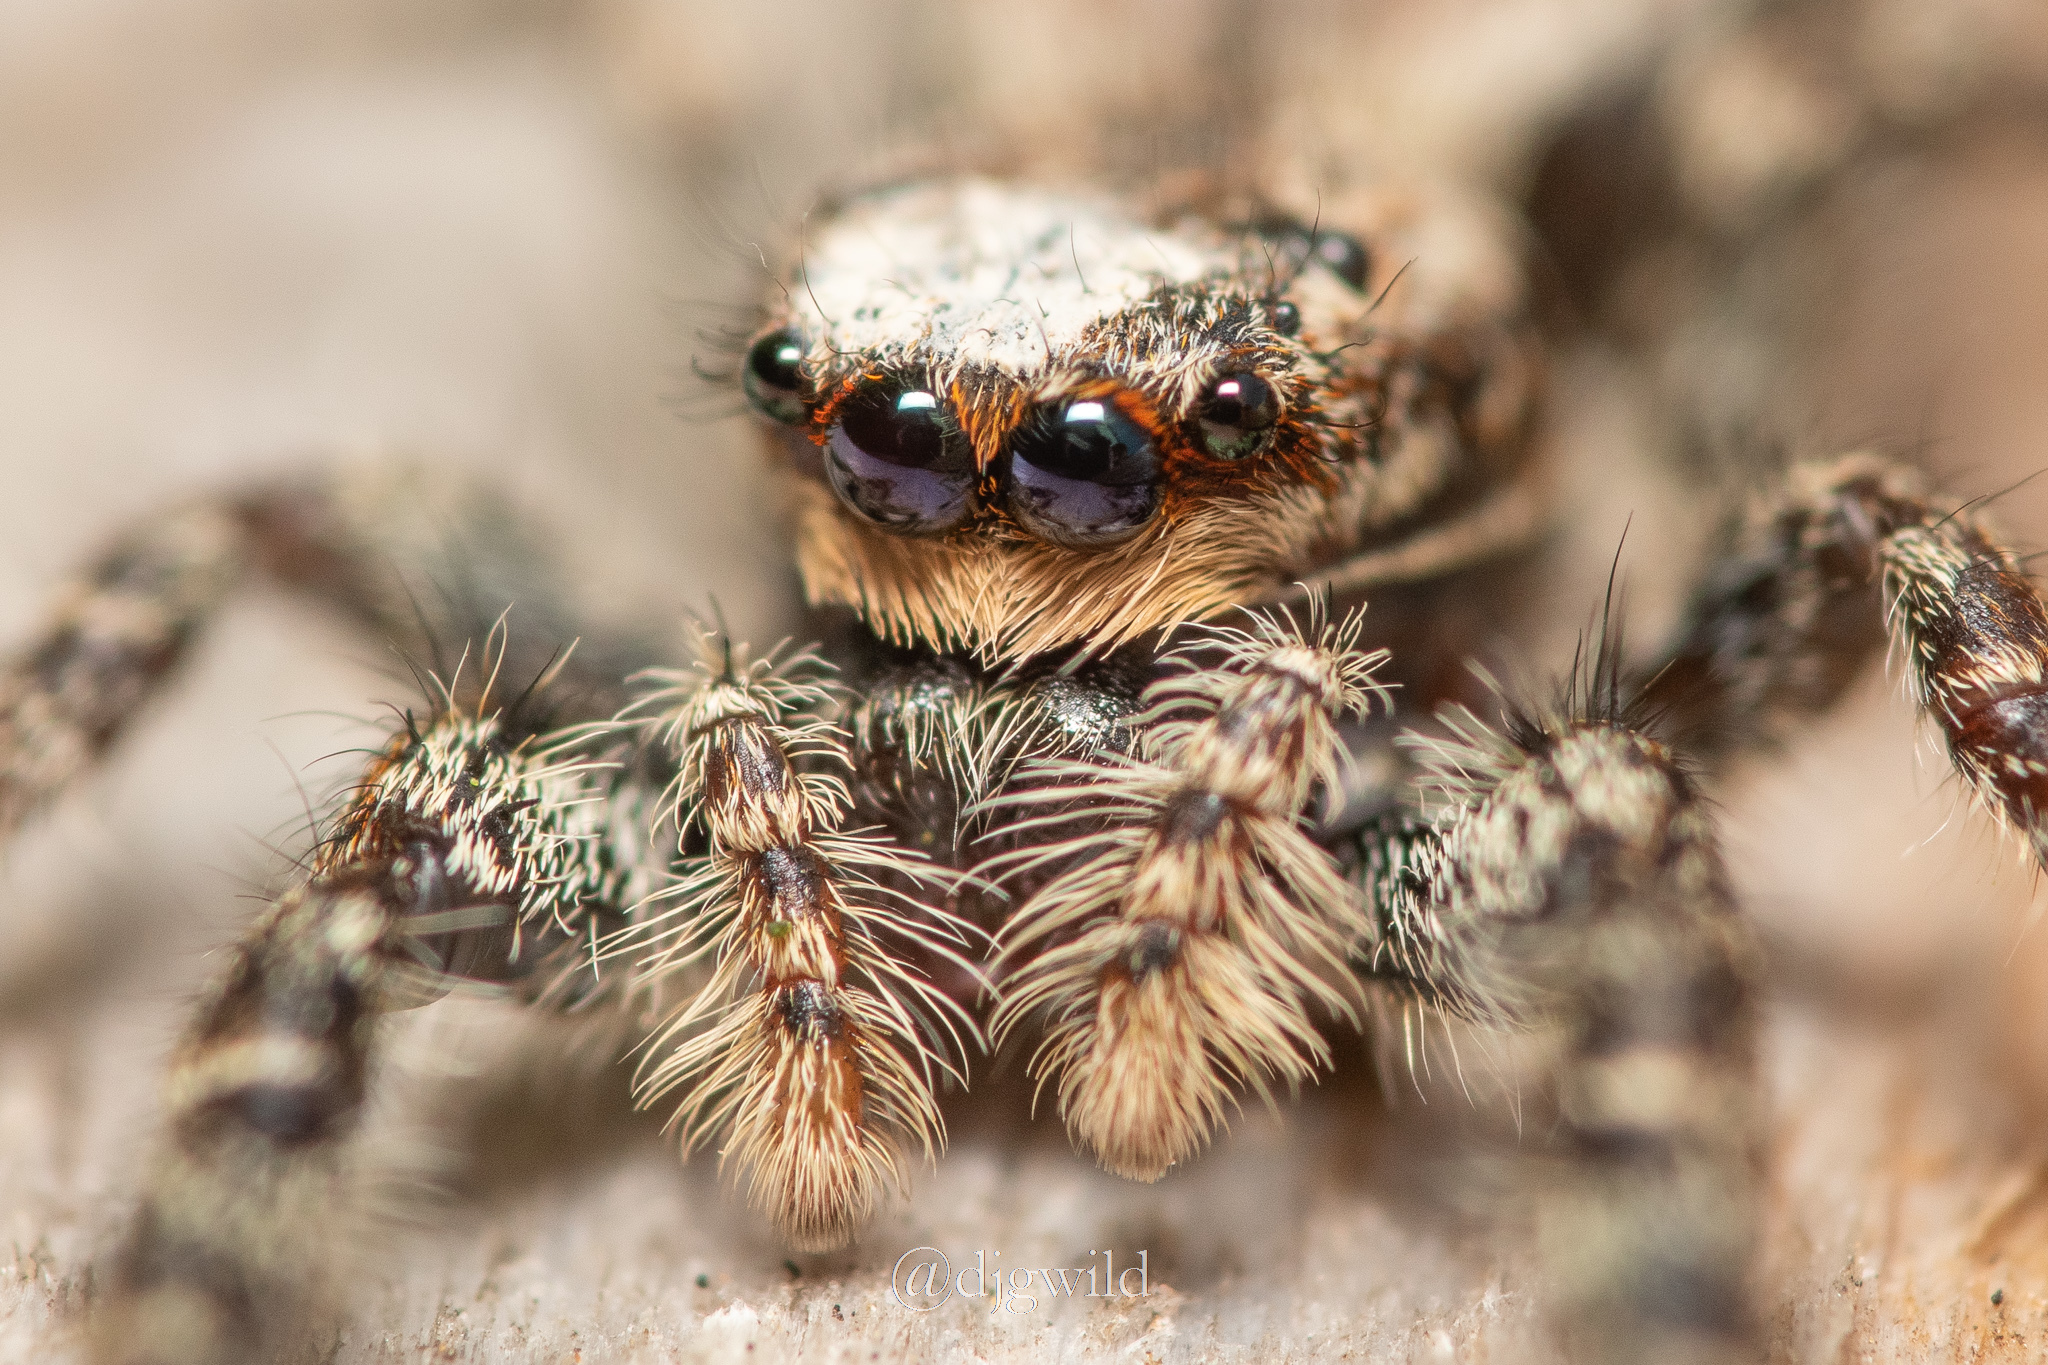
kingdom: Animalia
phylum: Arthropoda
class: Arachnida
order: Araneae
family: Salticidae
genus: Marpissa
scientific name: Marpissa muscosa
